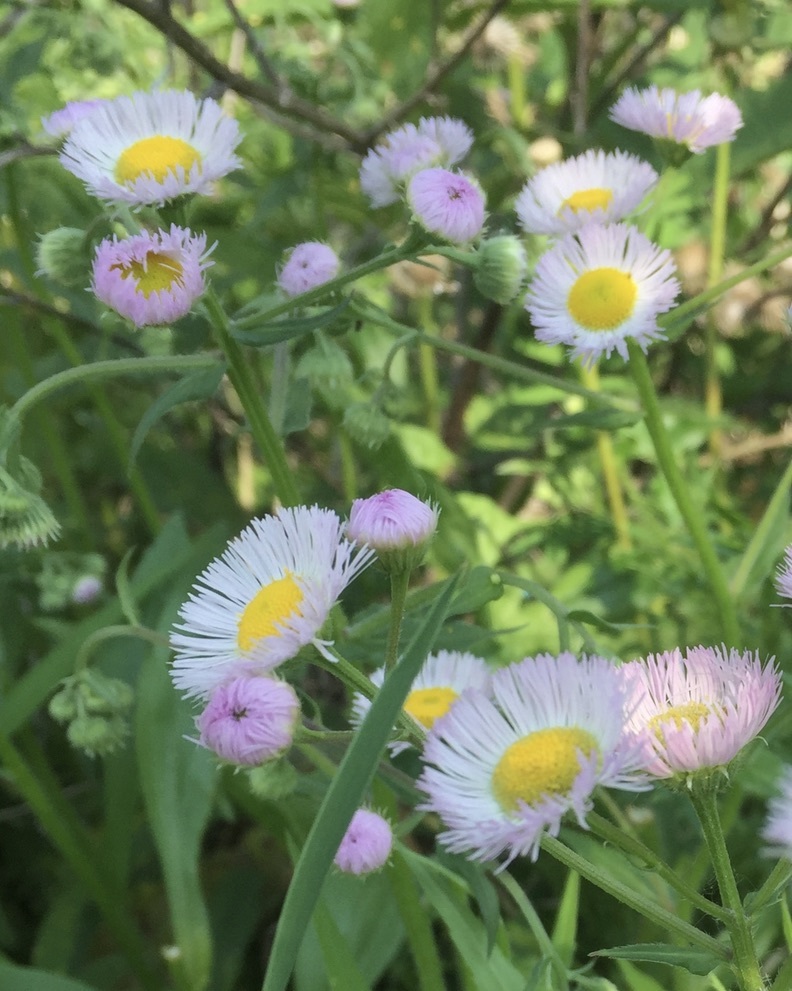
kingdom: Plantae
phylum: Tracheophyta
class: Magnoliopsida
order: Asterales
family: Asteraceae
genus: Erigeron
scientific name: Erigeron philadelphicus
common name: Robin's-plantain
